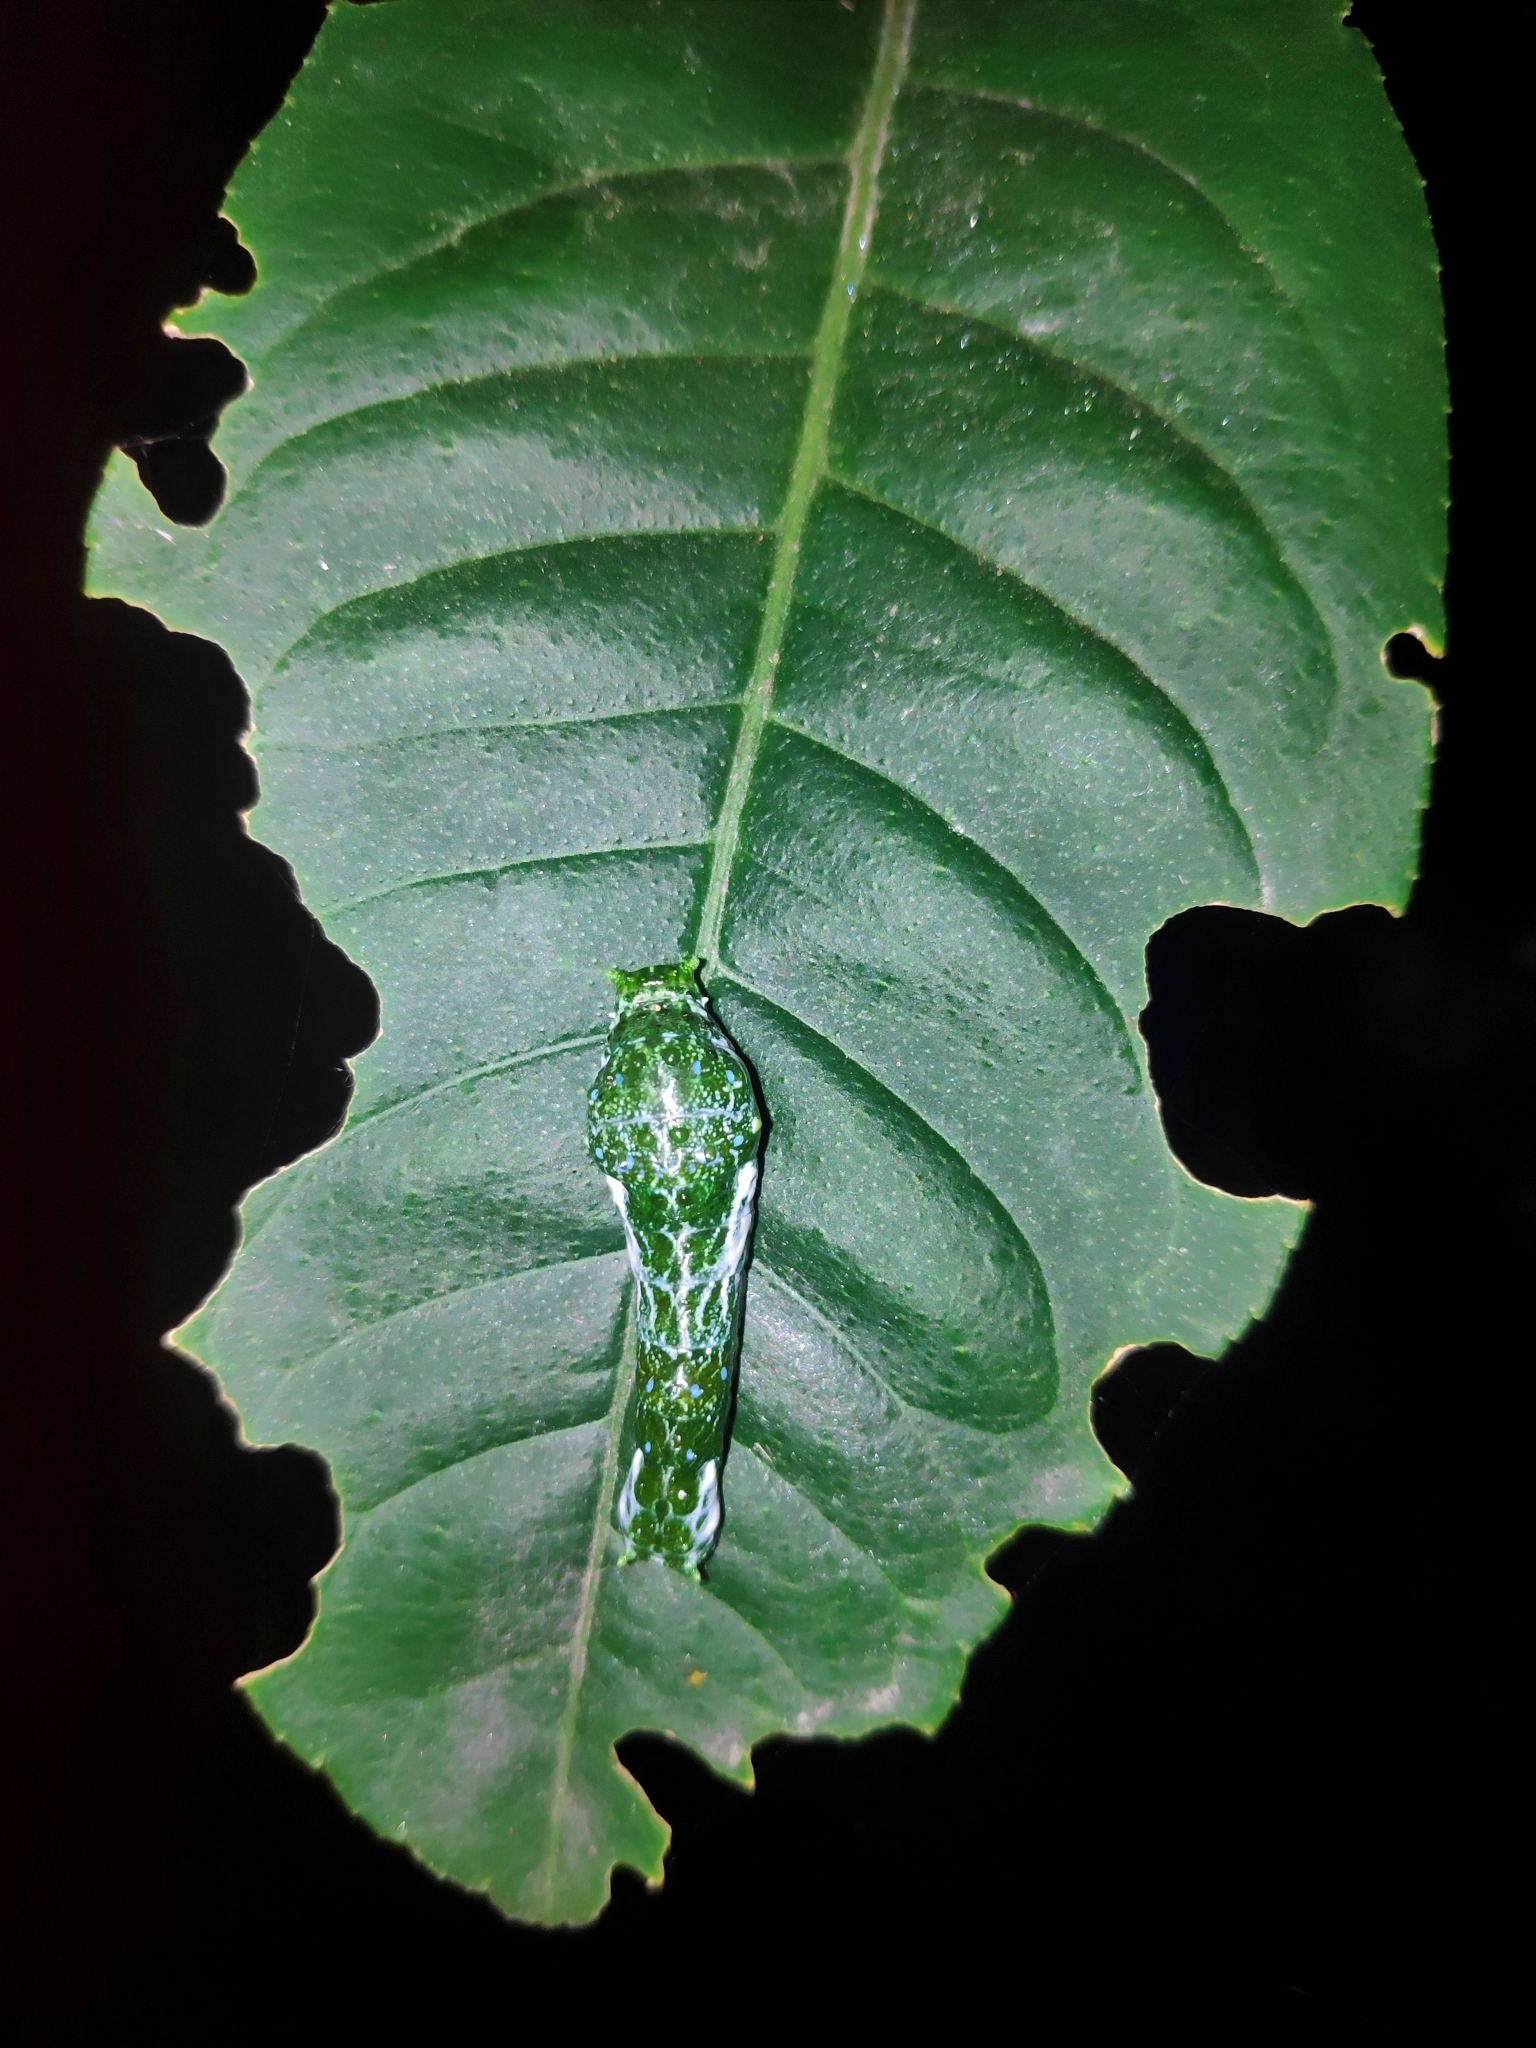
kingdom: Animalia
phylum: Arthropoda
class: Insecta
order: Lepidoptera
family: Papilionidae
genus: Papilio
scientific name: Papilio memnon
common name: Great mormon
